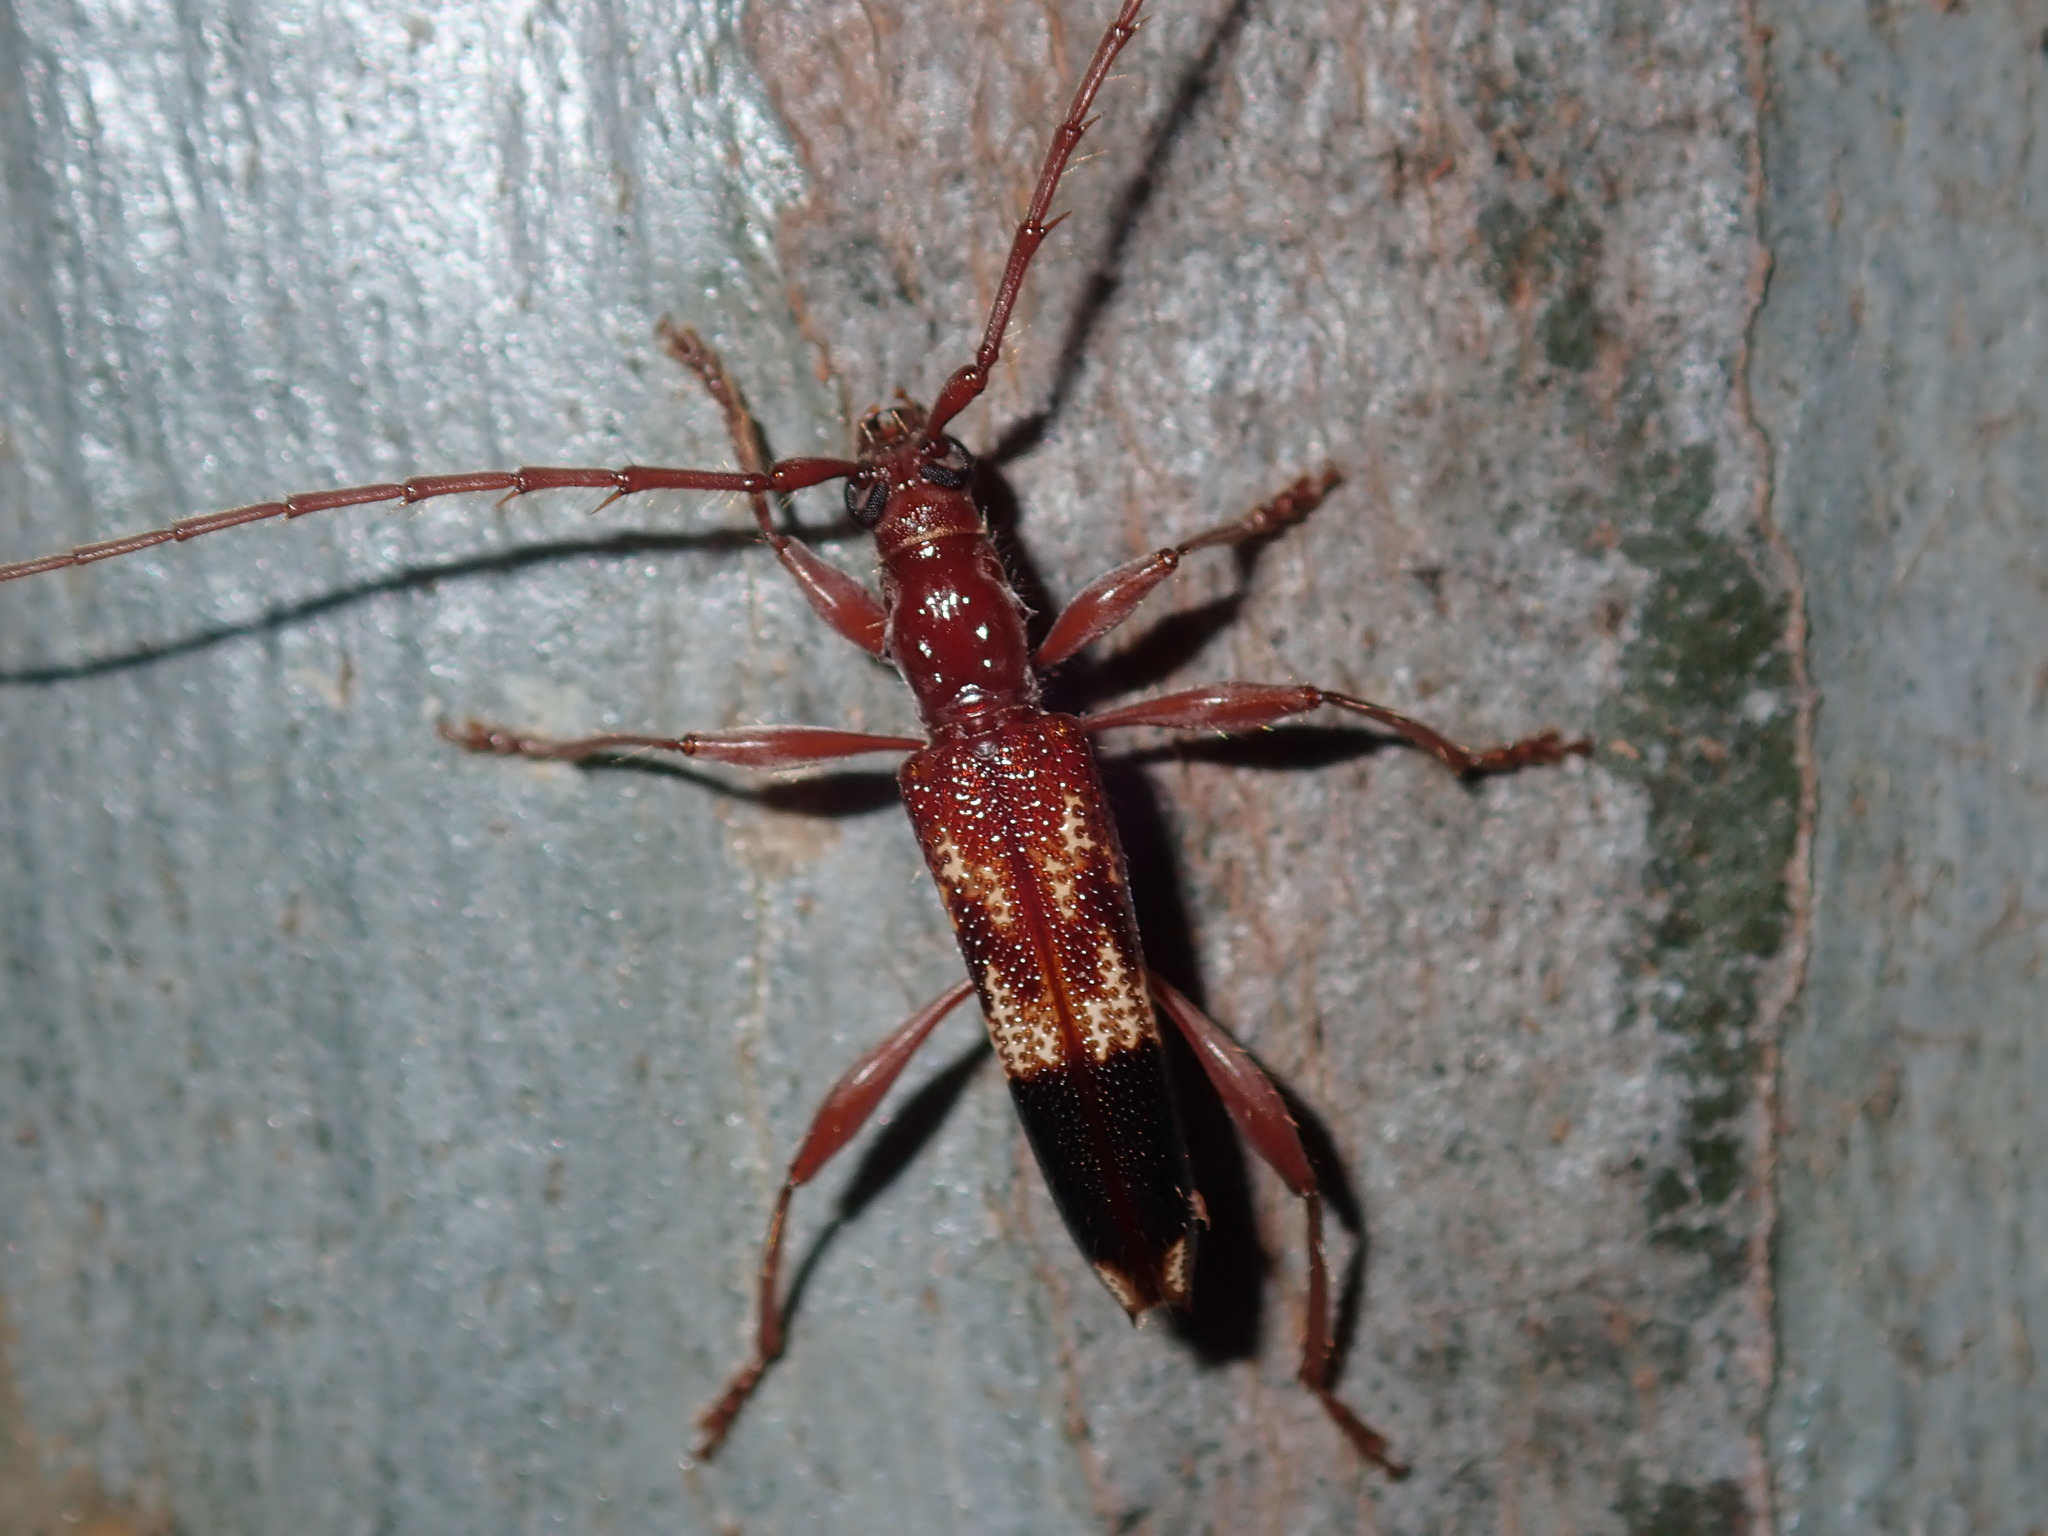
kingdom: Animalia
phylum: Arthropoda
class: Insecta
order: Coleoptera
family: Cerambycidae
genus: Coptocercus
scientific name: Coptocercus abberrans
